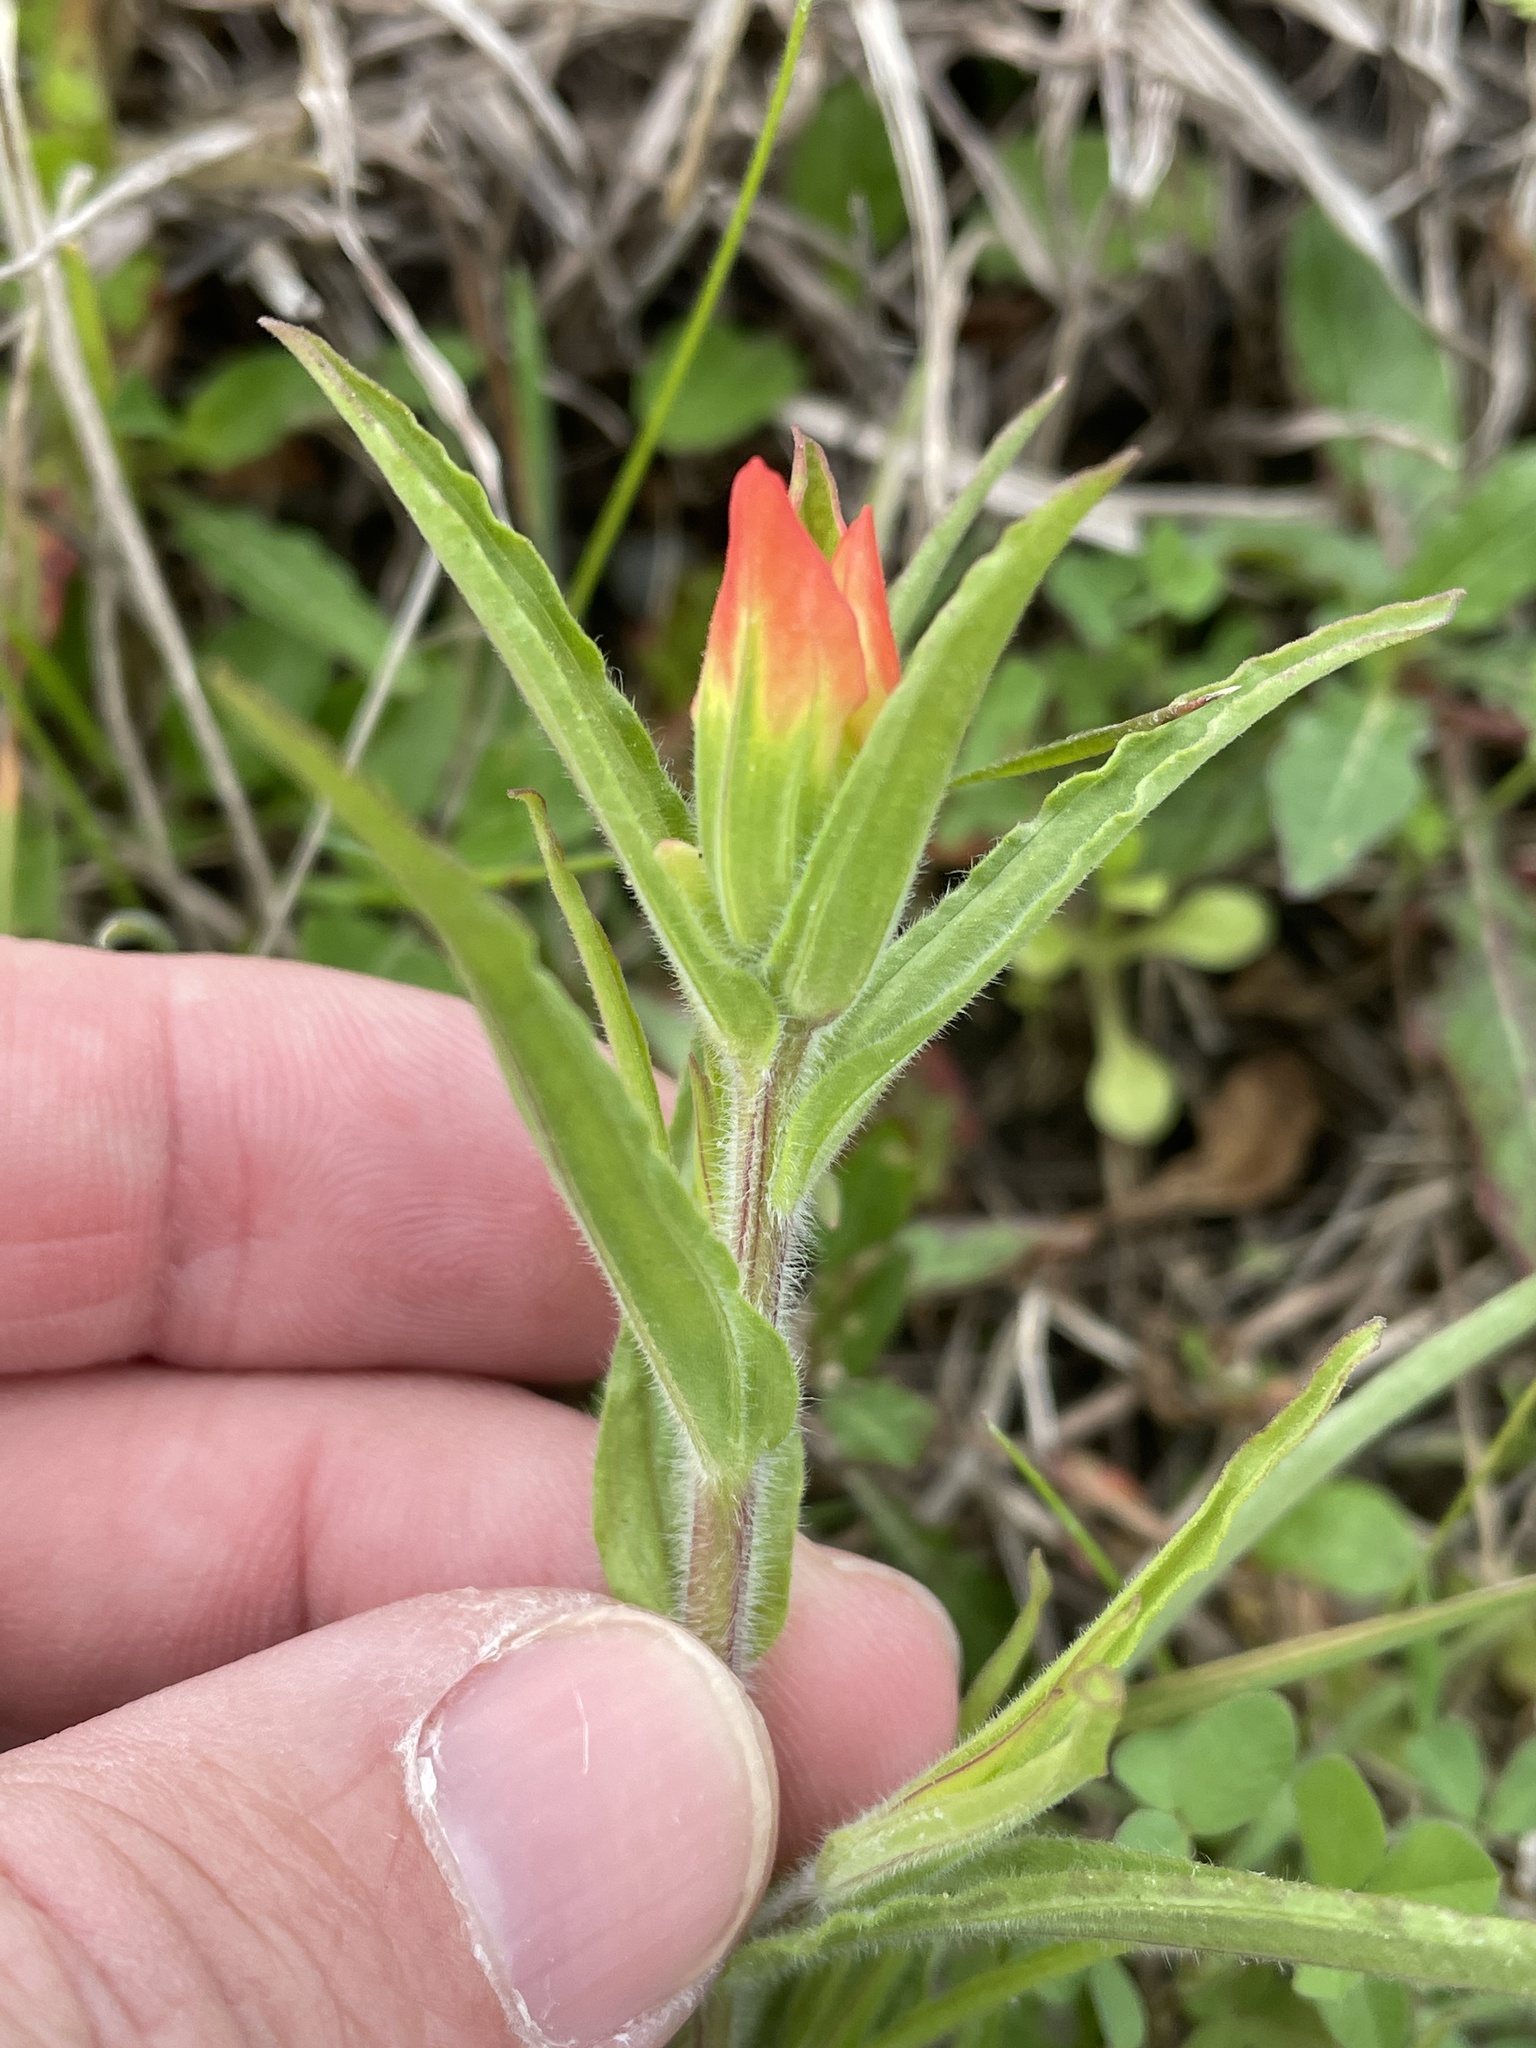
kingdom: Plantae
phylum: Tracheophyta
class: Magnoliopsida
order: Lamiales
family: Orobanchaceae
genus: Castilleja
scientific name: Castilleja indivisa
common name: Texas paintbrush
